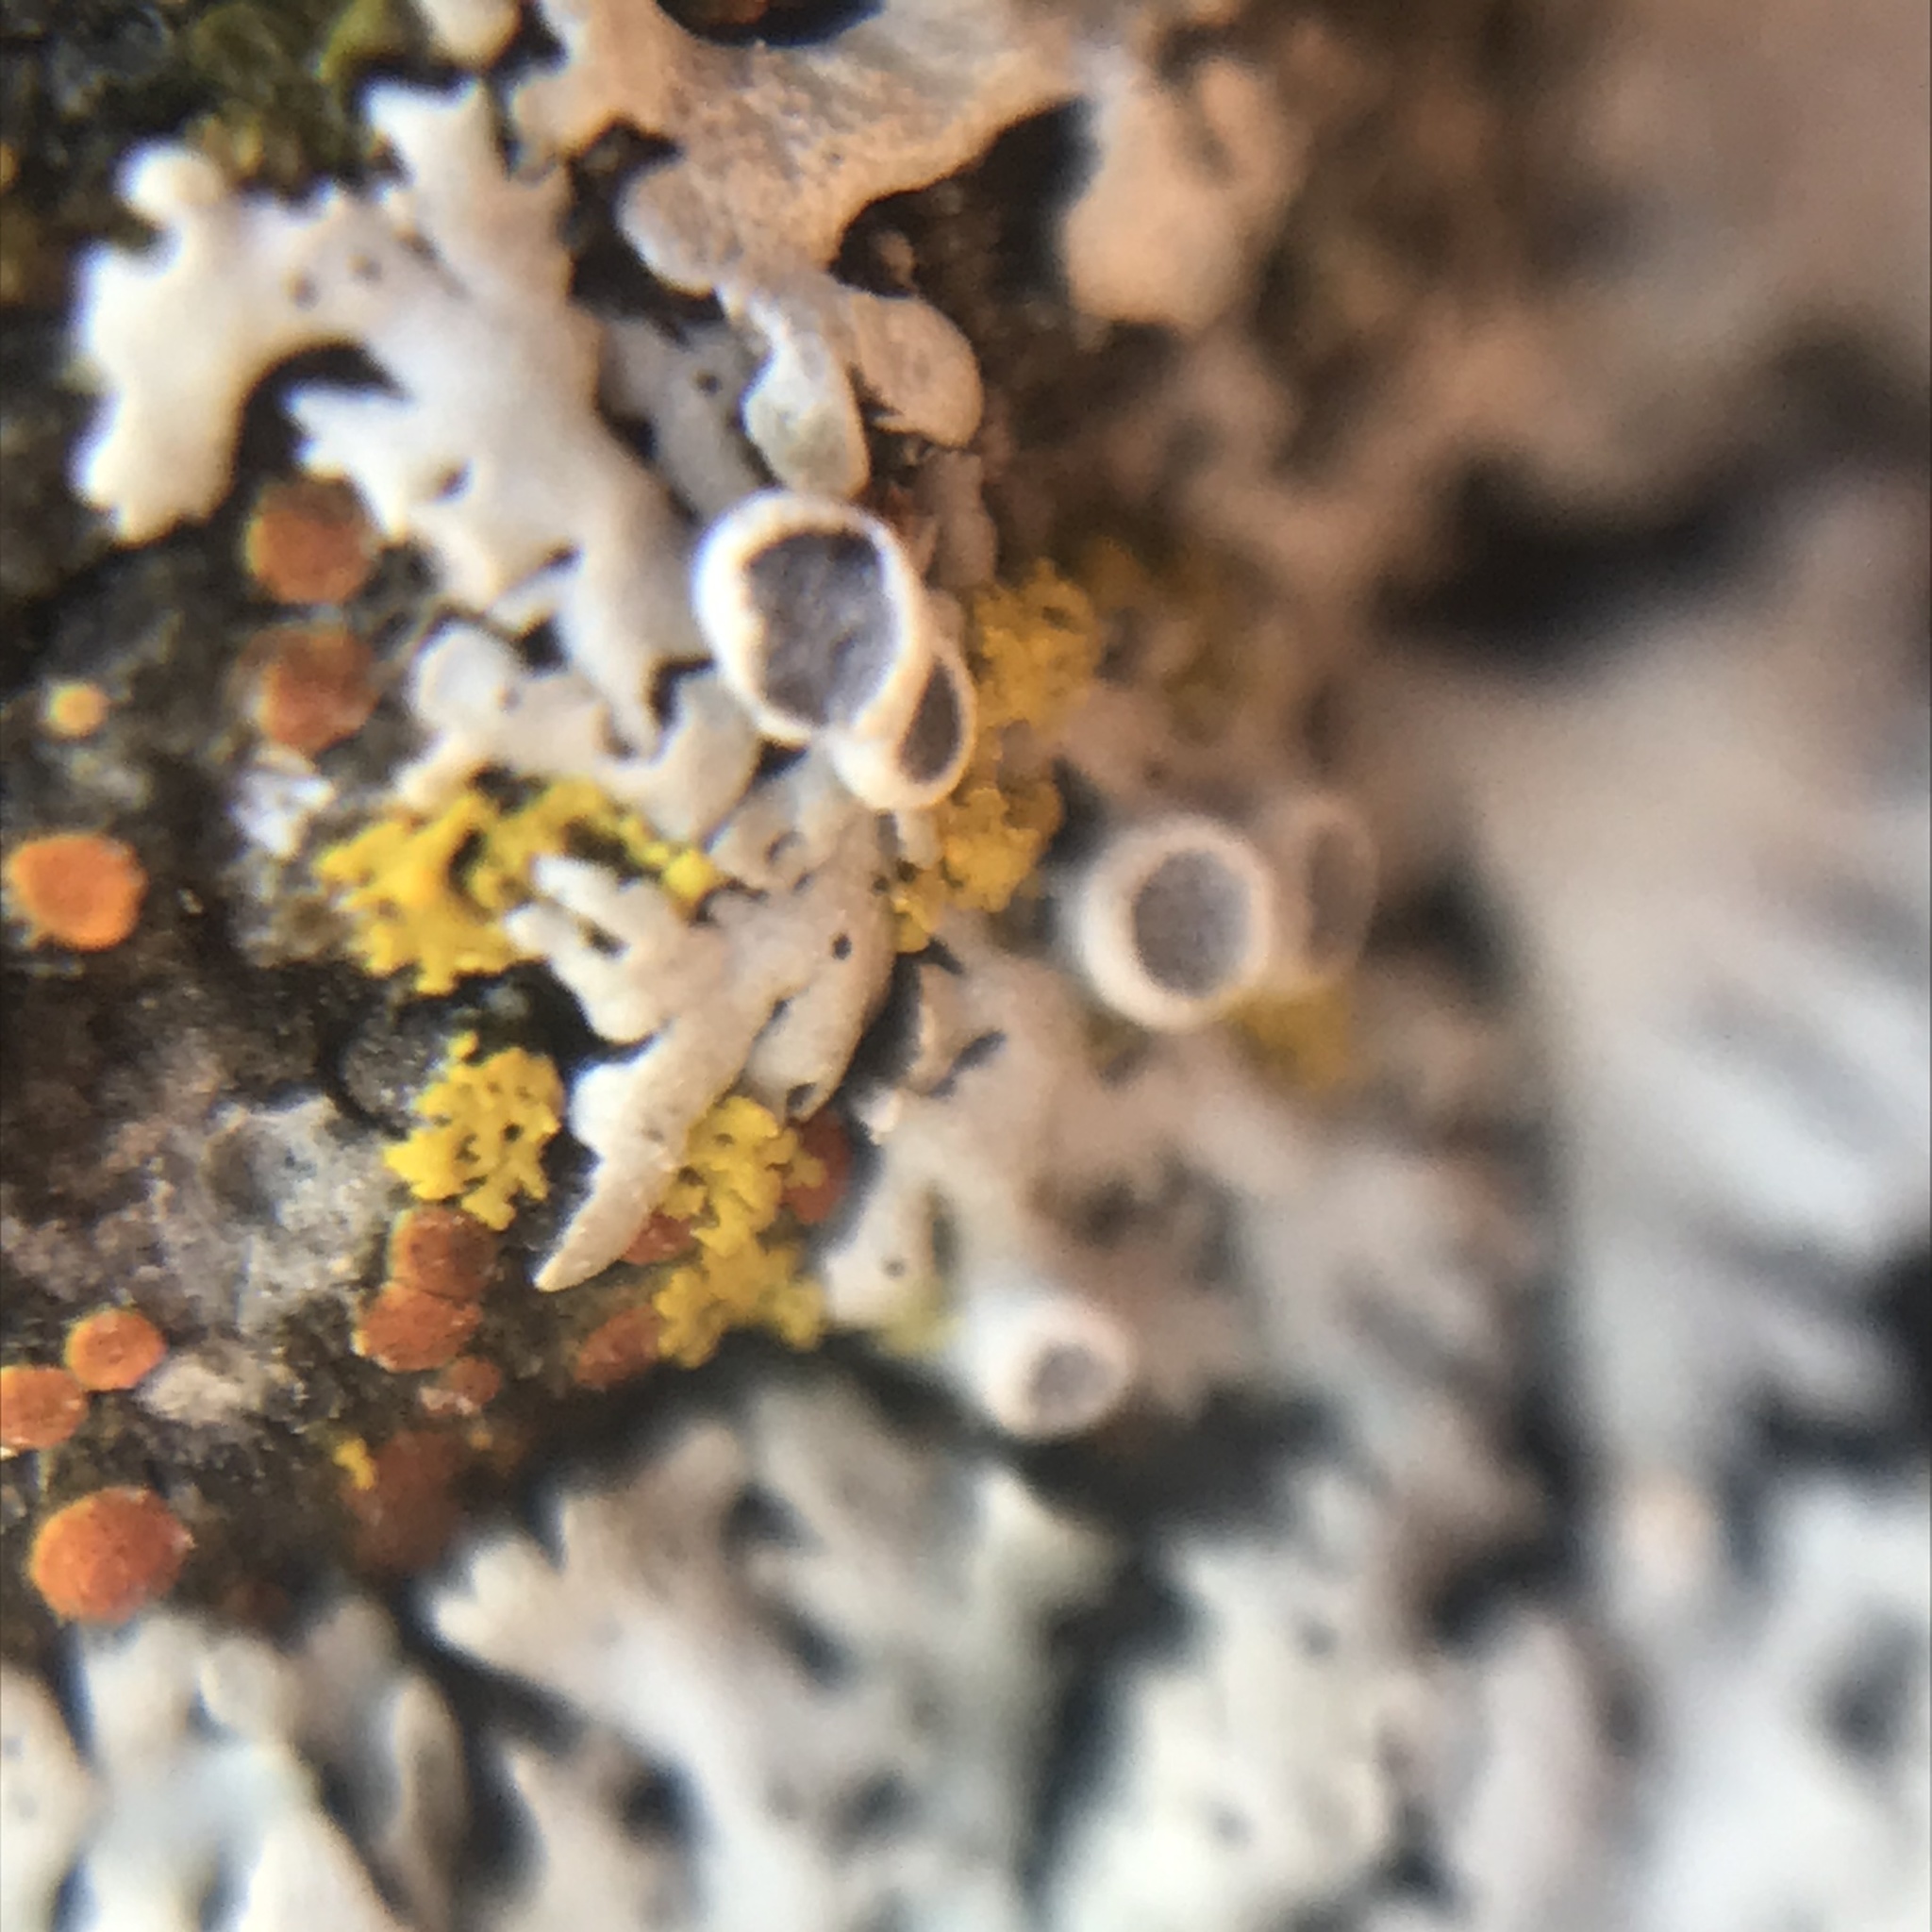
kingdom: Fungi
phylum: Ascomycota
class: Lecanoromycetes
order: Caliciales
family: Physciaceae
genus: Physcia
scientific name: Physcia aipolia
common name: Hoary rosette lichen
